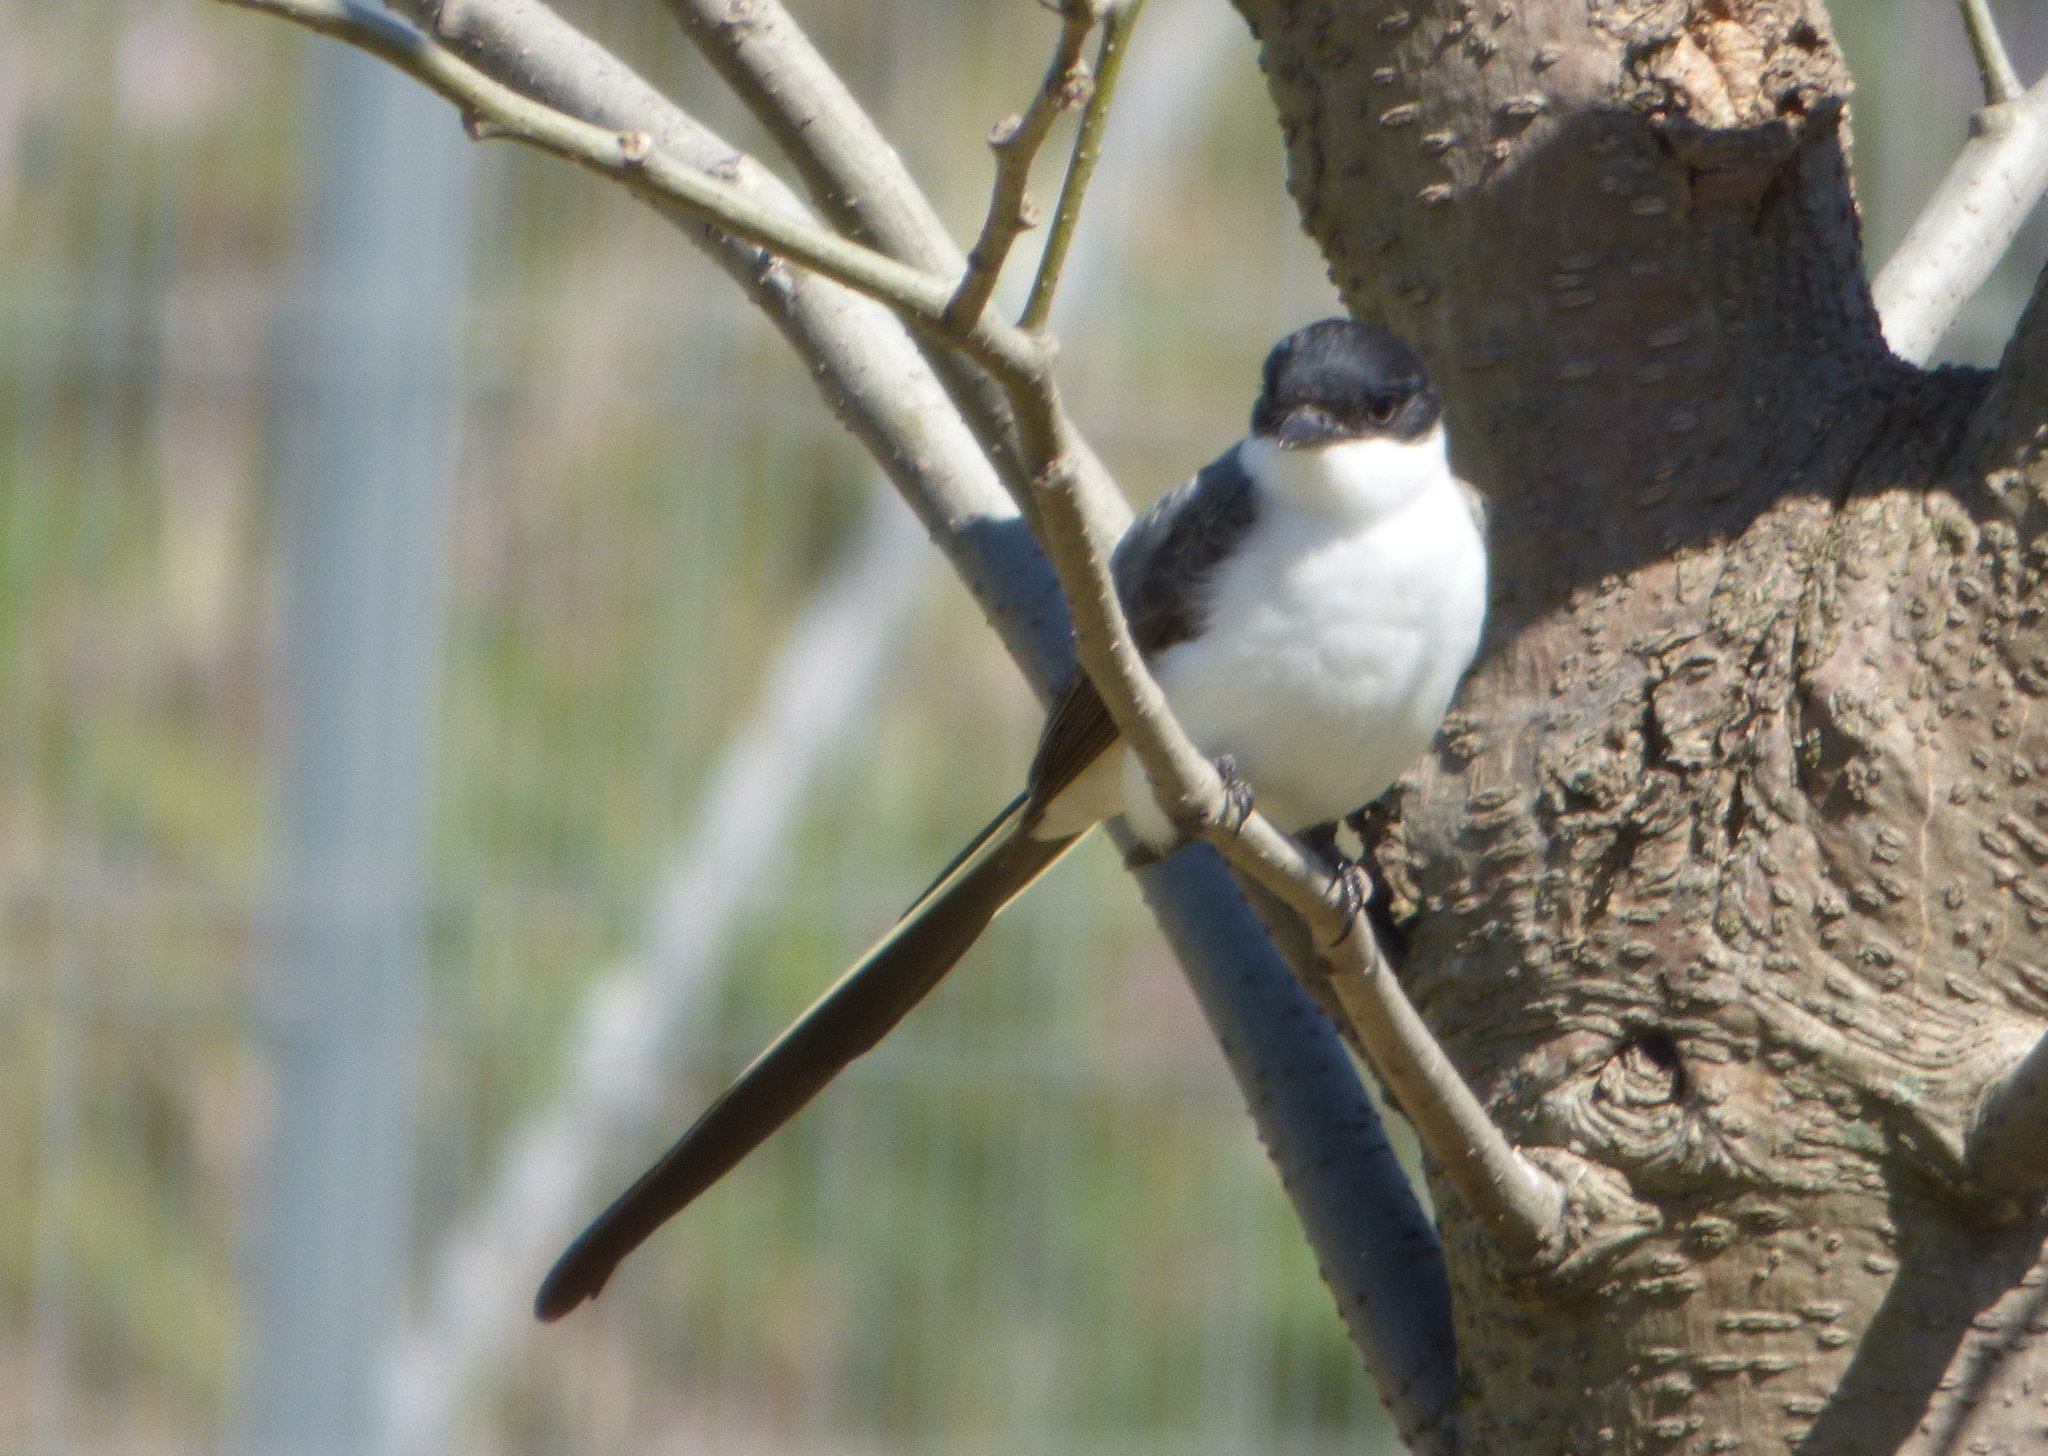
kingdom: Animalia
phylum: Chordata
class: Aves
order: Passeriformes
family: Tyrannidae
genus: Tyrannus
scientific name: Tyrannus savana
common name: Fork-tailed flycatcher
